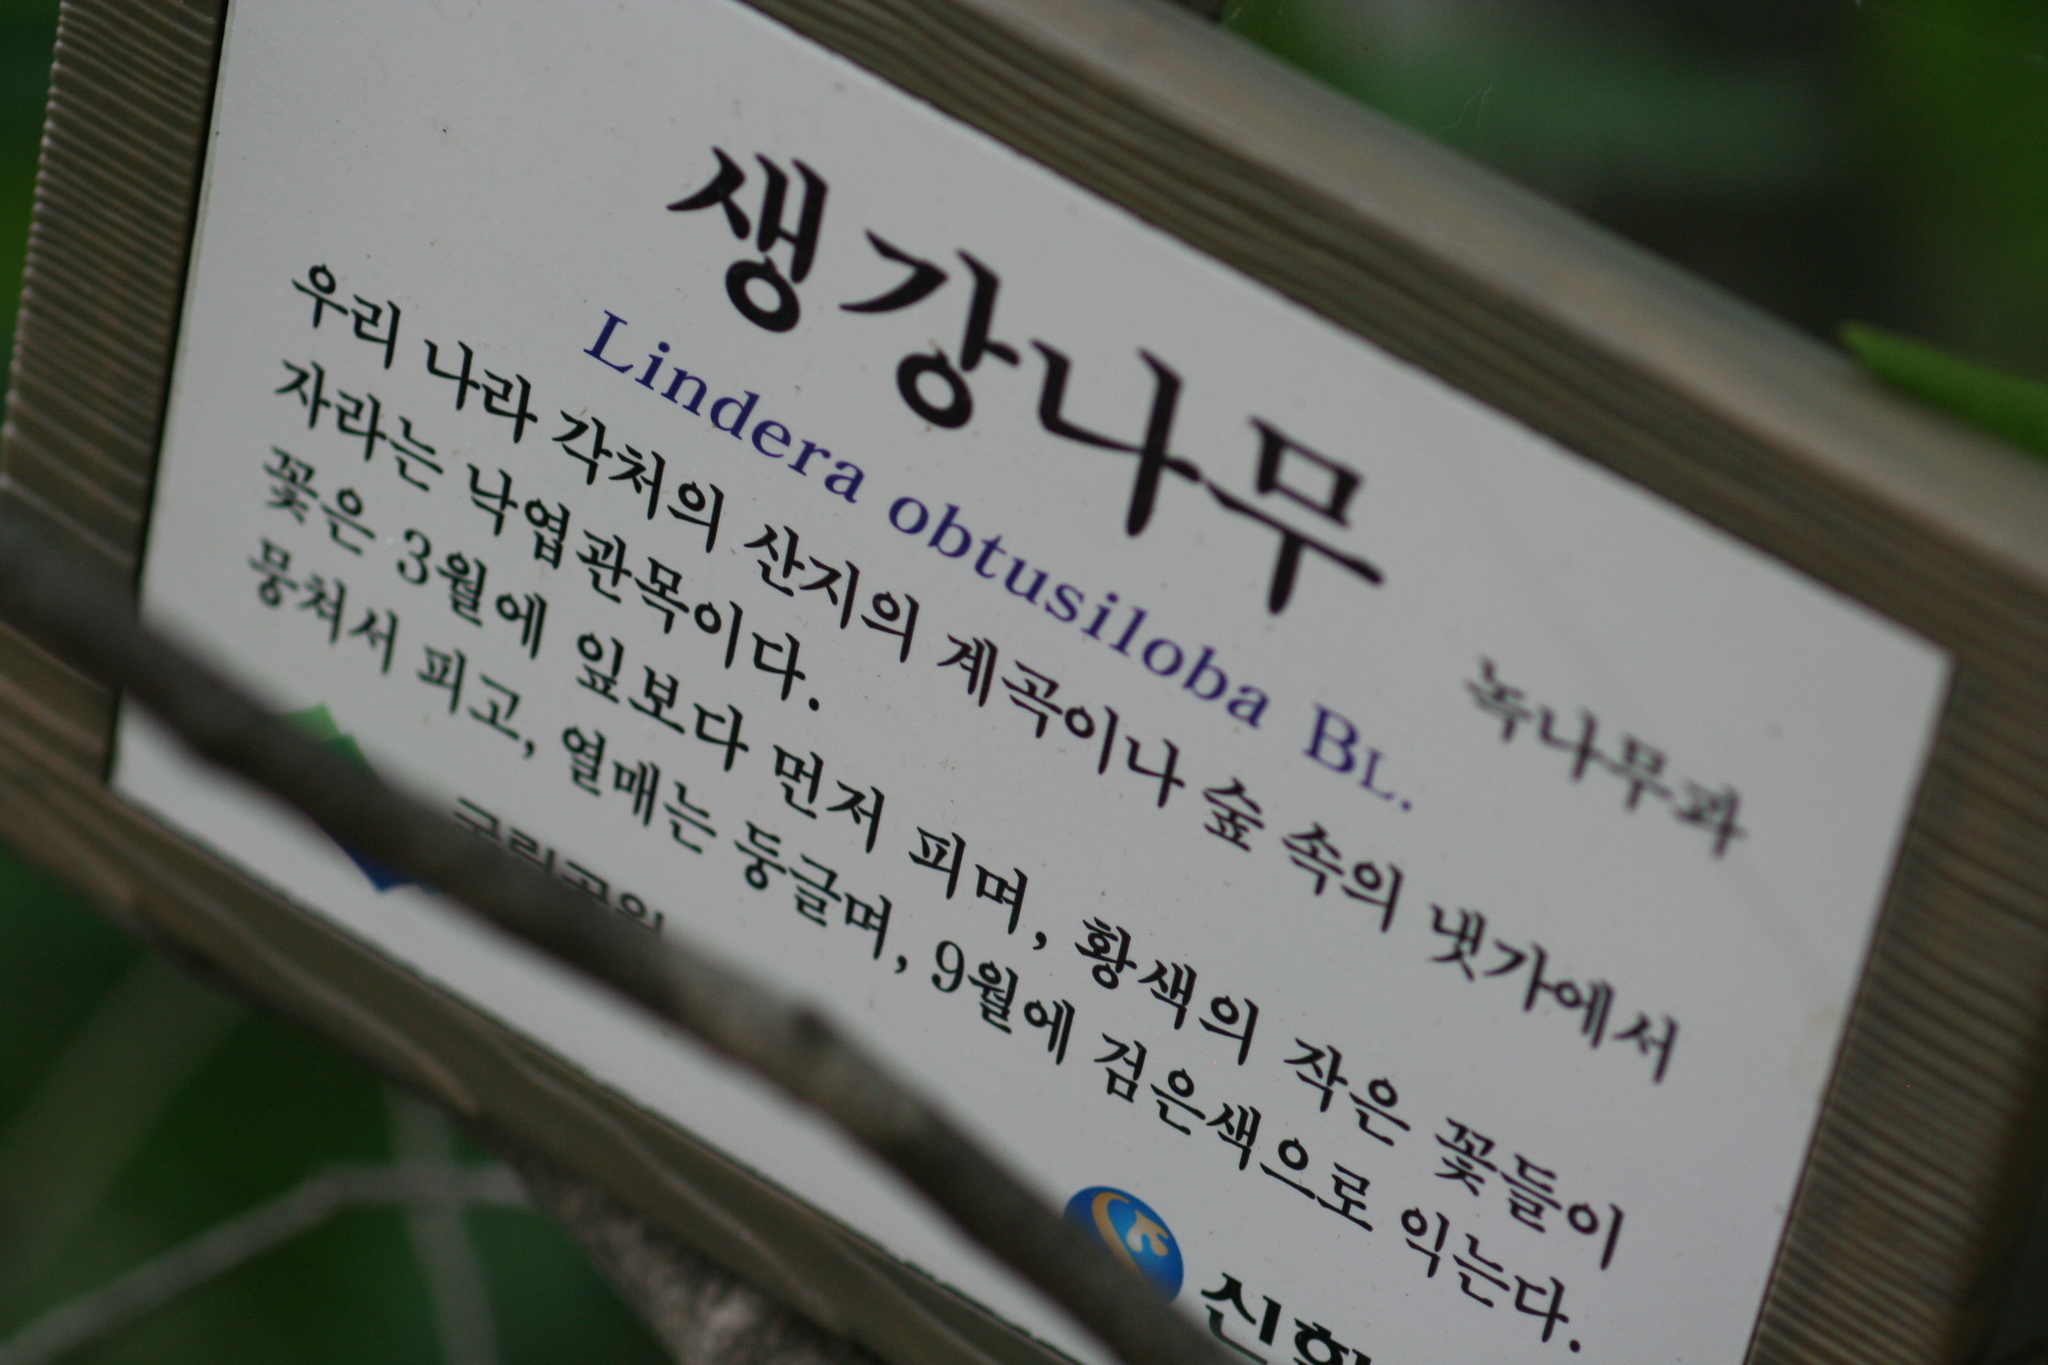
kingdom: Plantae
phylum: Tracheophyta
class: Magnoliopsida
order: Laurales
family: Lauraceae
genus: Lindera
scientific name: Lindera obtusiloba
